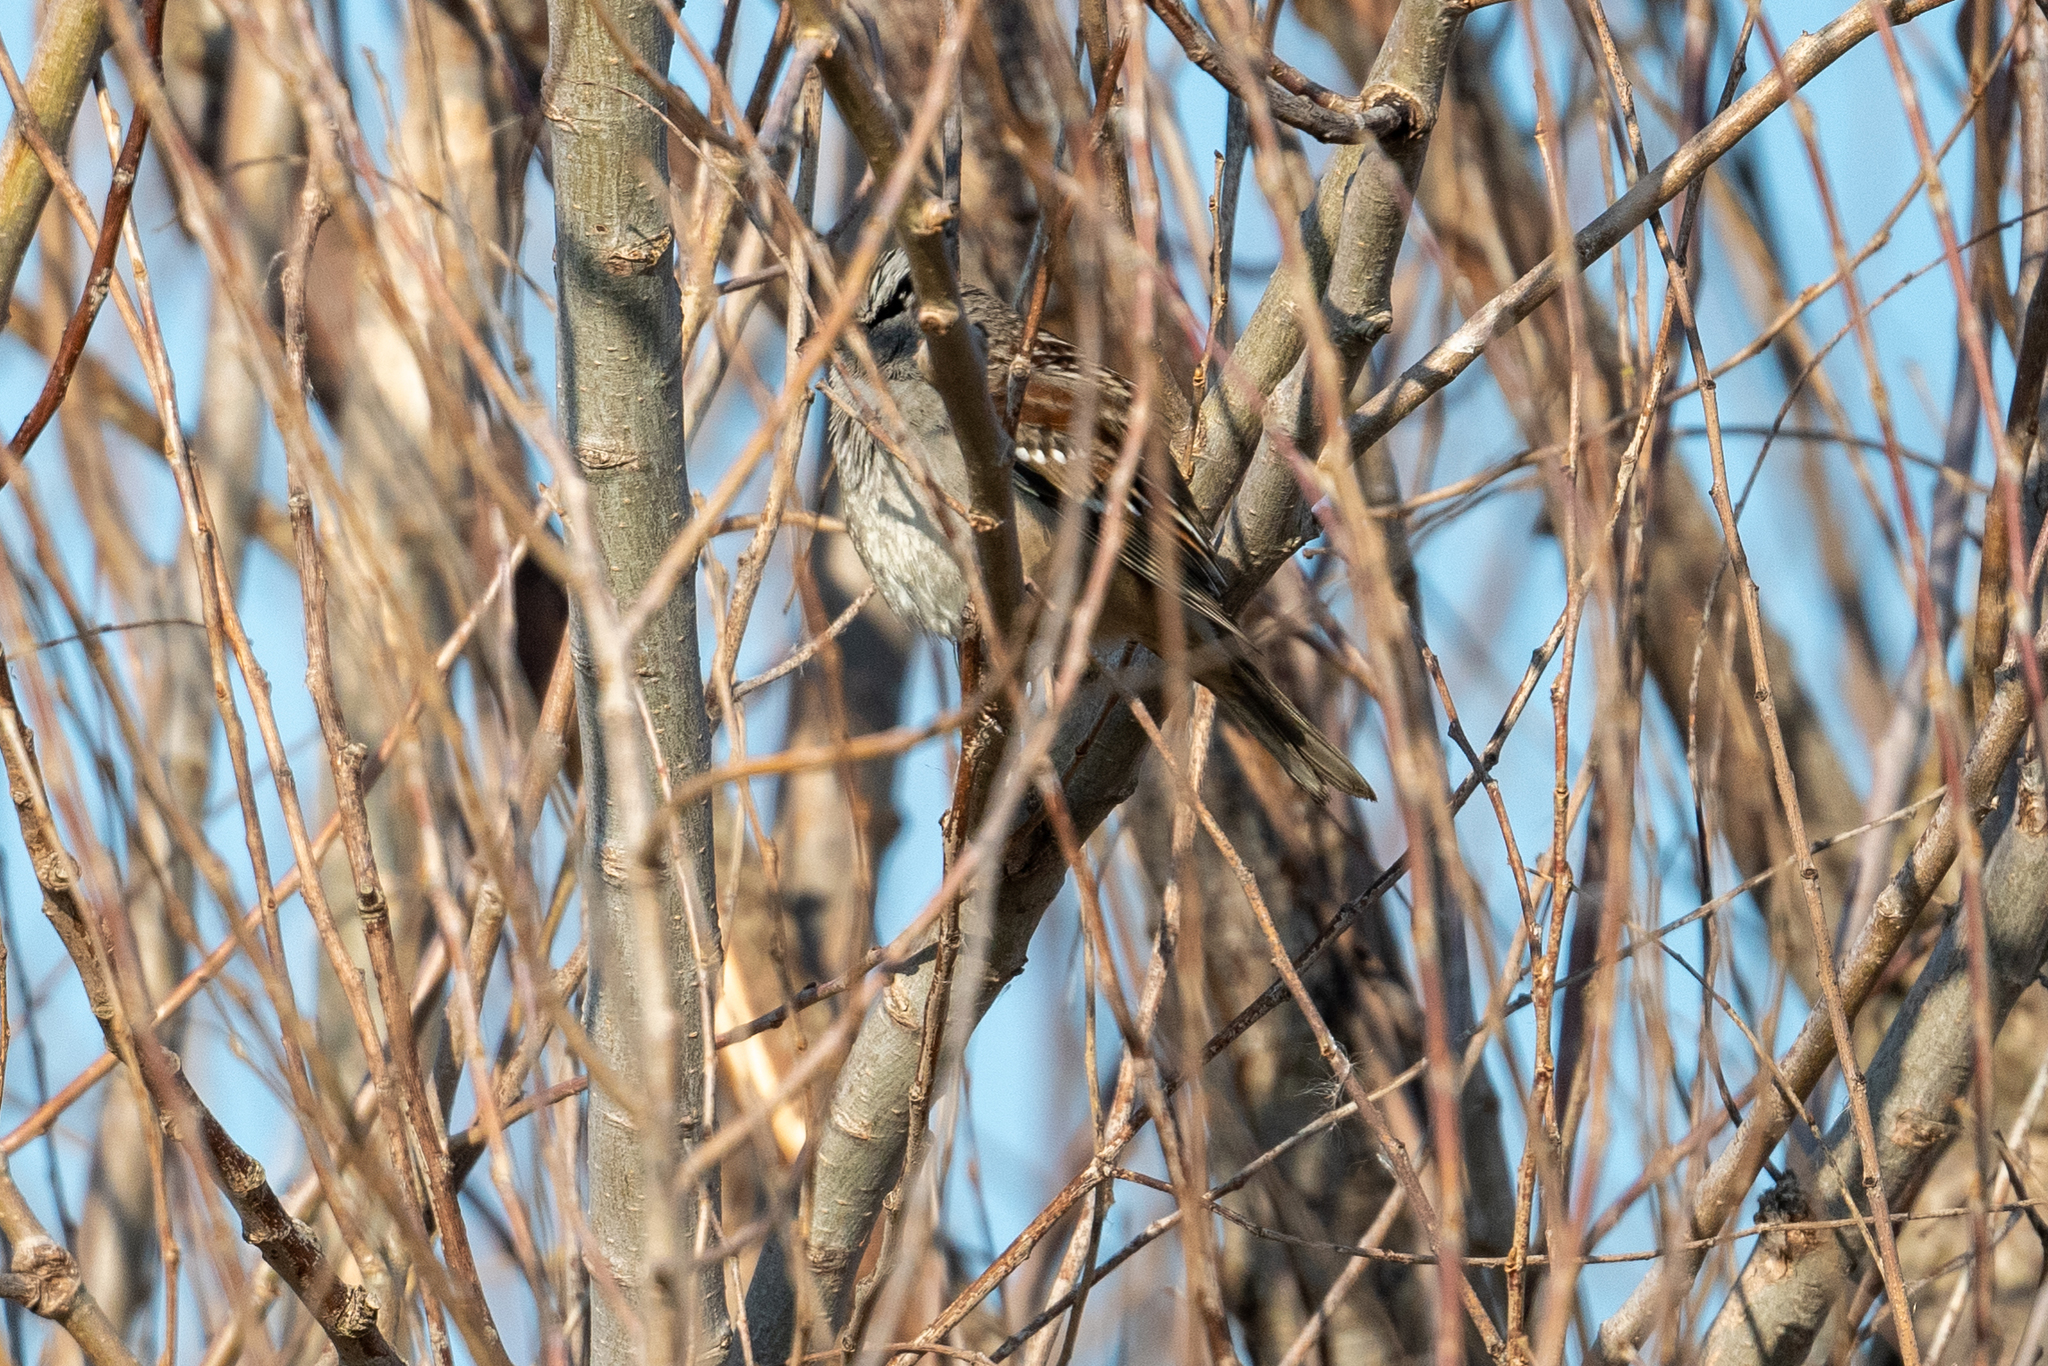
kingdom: Animalia
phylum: Chordata
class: Aves
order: Passeriformes
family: Passerellidae
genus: Zonotrichia
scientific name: Zonotrichia leucophrys
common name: White-crowned sparrow
